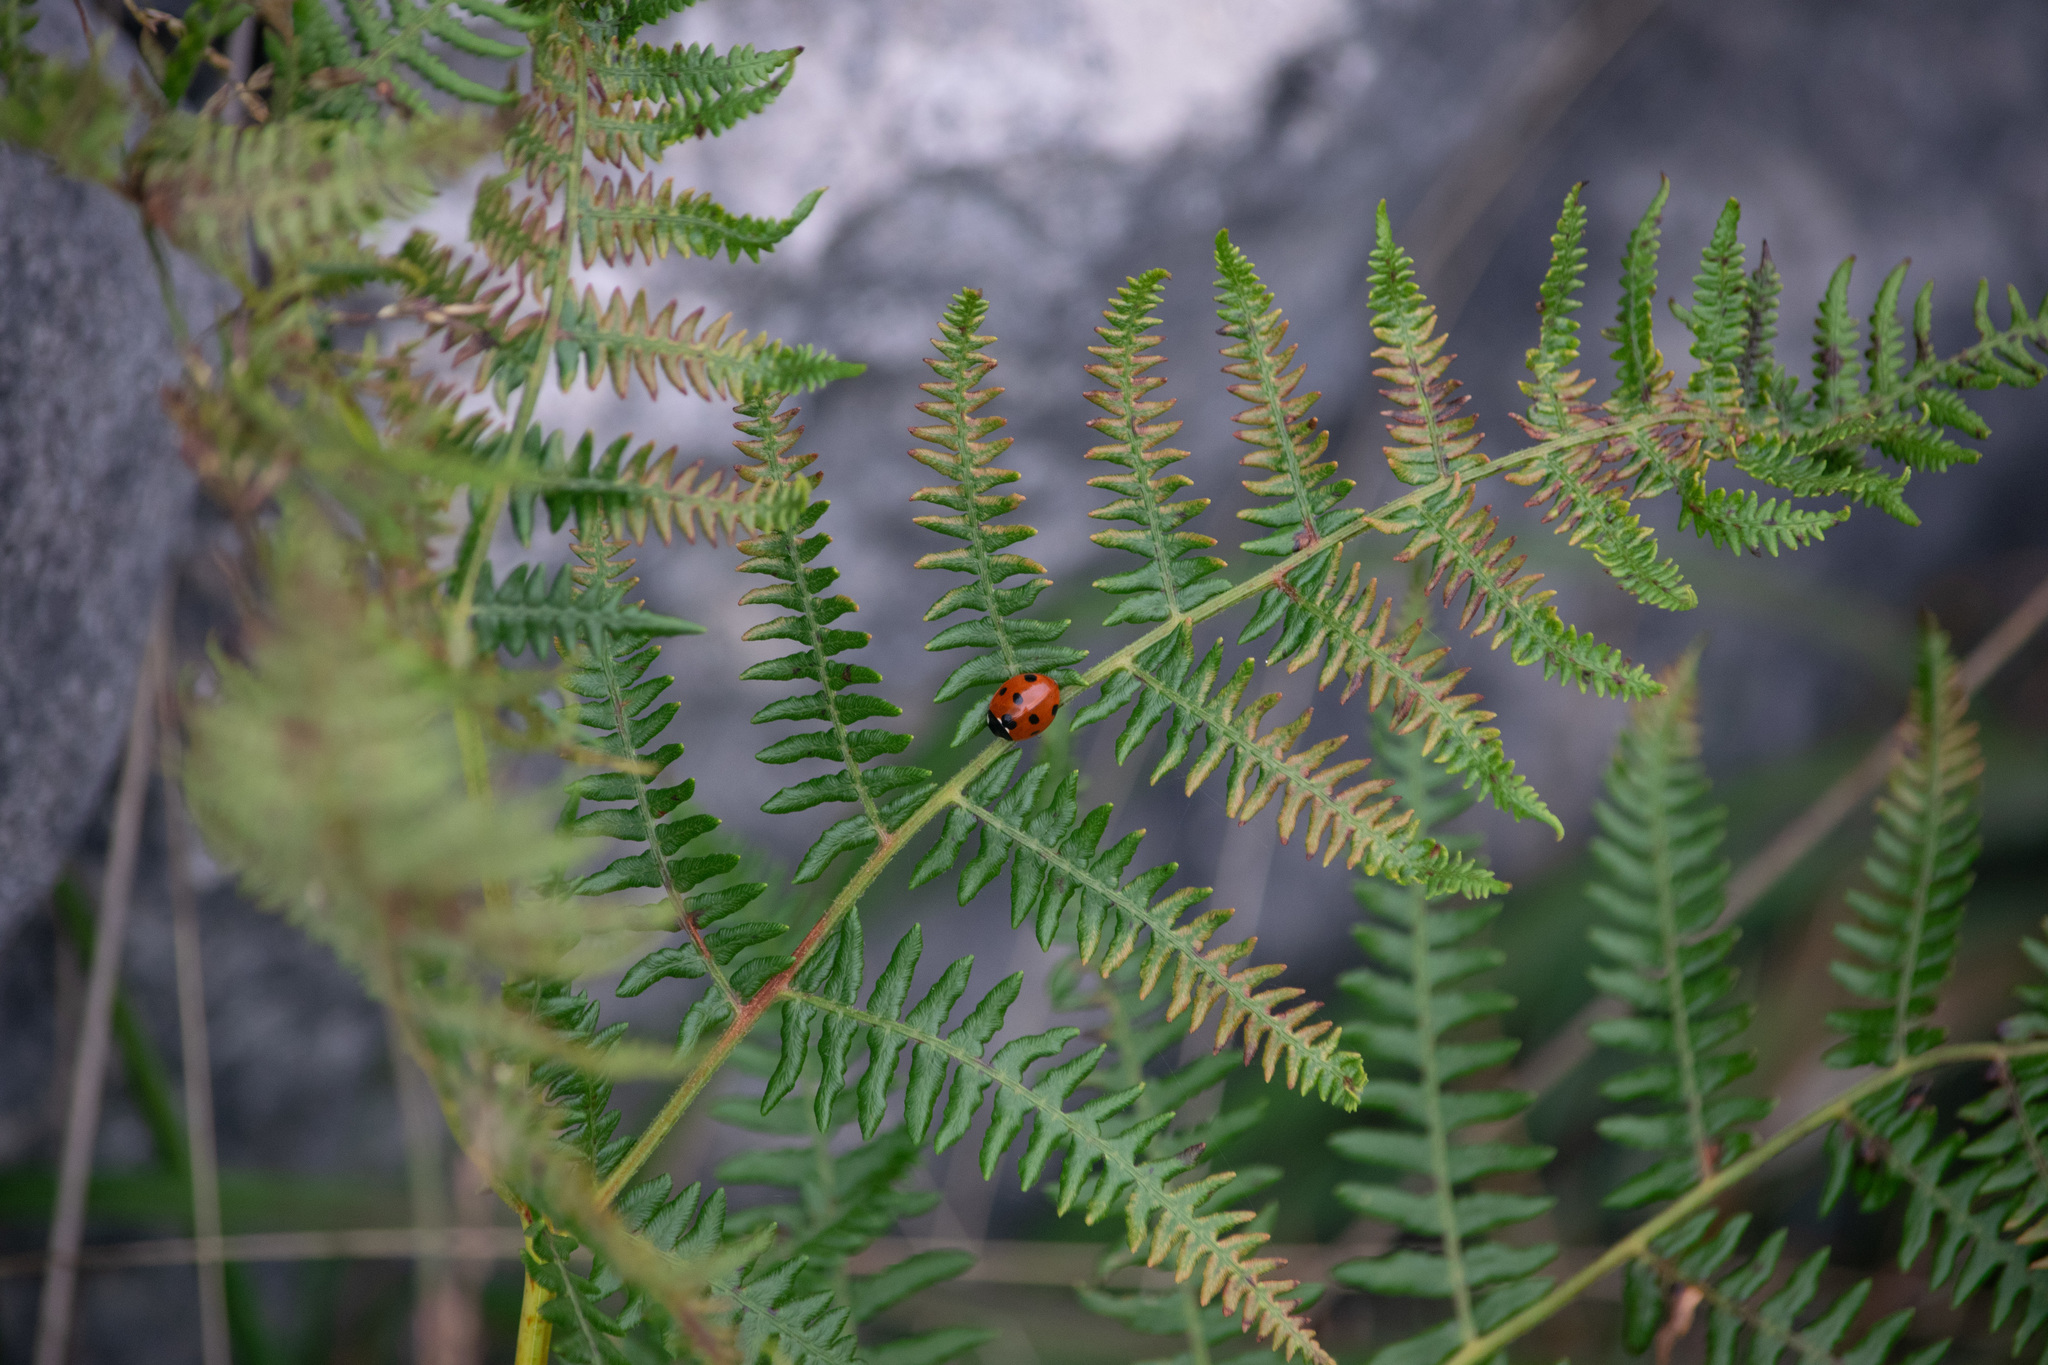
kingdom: Plantae
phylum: Tracheophyta
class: Polypodiopsida
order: Polypodiales
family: Dennstaedtiaceae
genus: Pteridium
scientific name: Pteridium aquilinum
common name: Bracken
